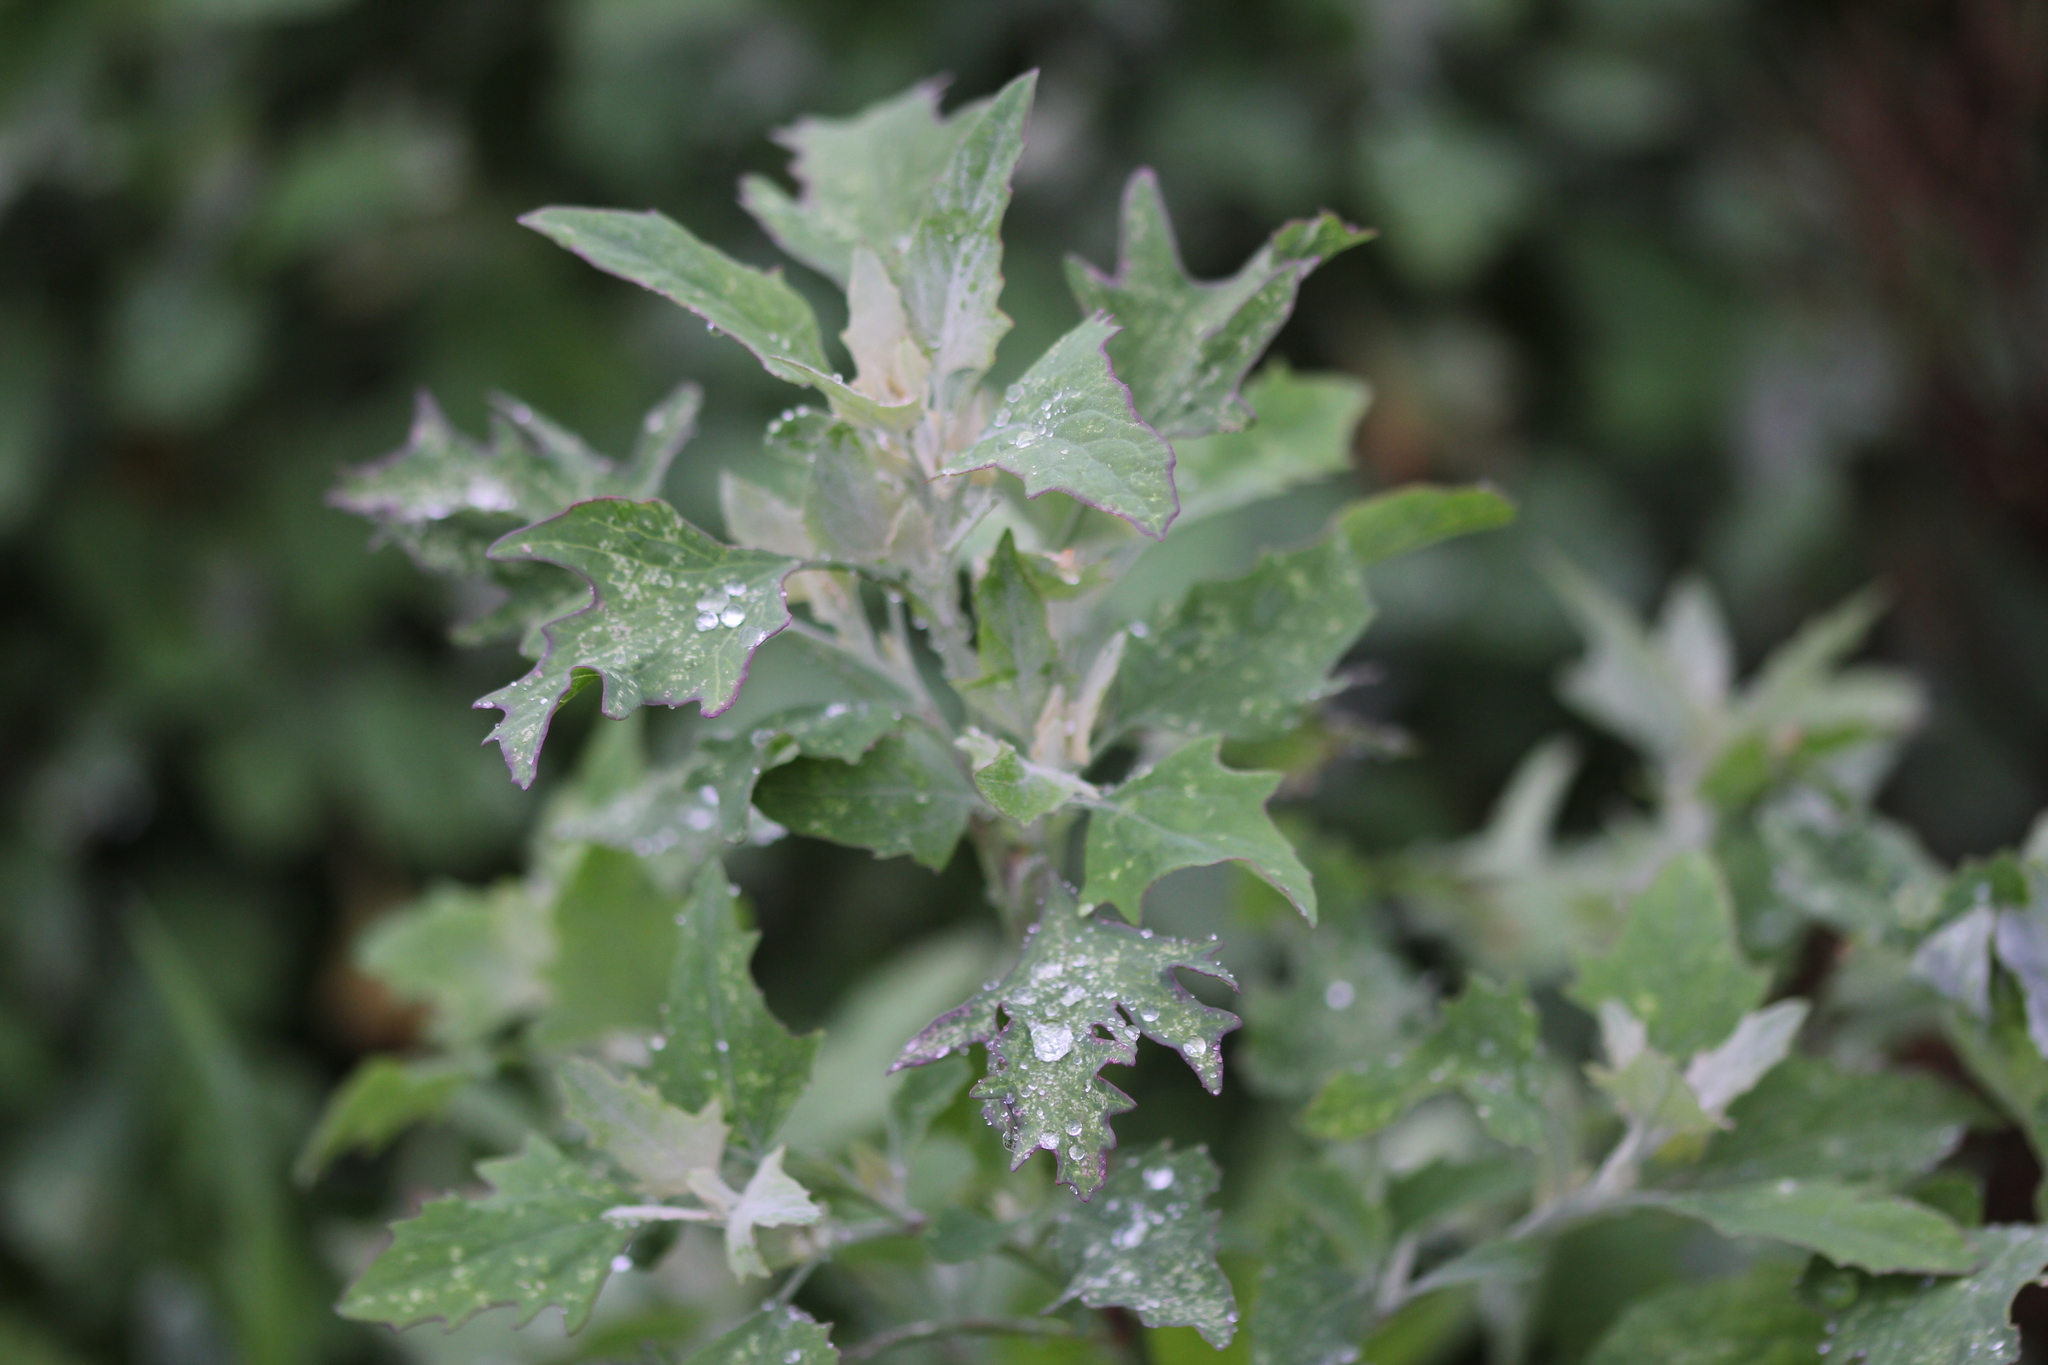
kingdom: Plantae
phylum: Tracheophyta
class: Magnoliopsida
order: Caryophyllales
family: Amaranthaceae
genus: Chenopodium
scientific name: Chenopodium album
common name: Fat-hen
